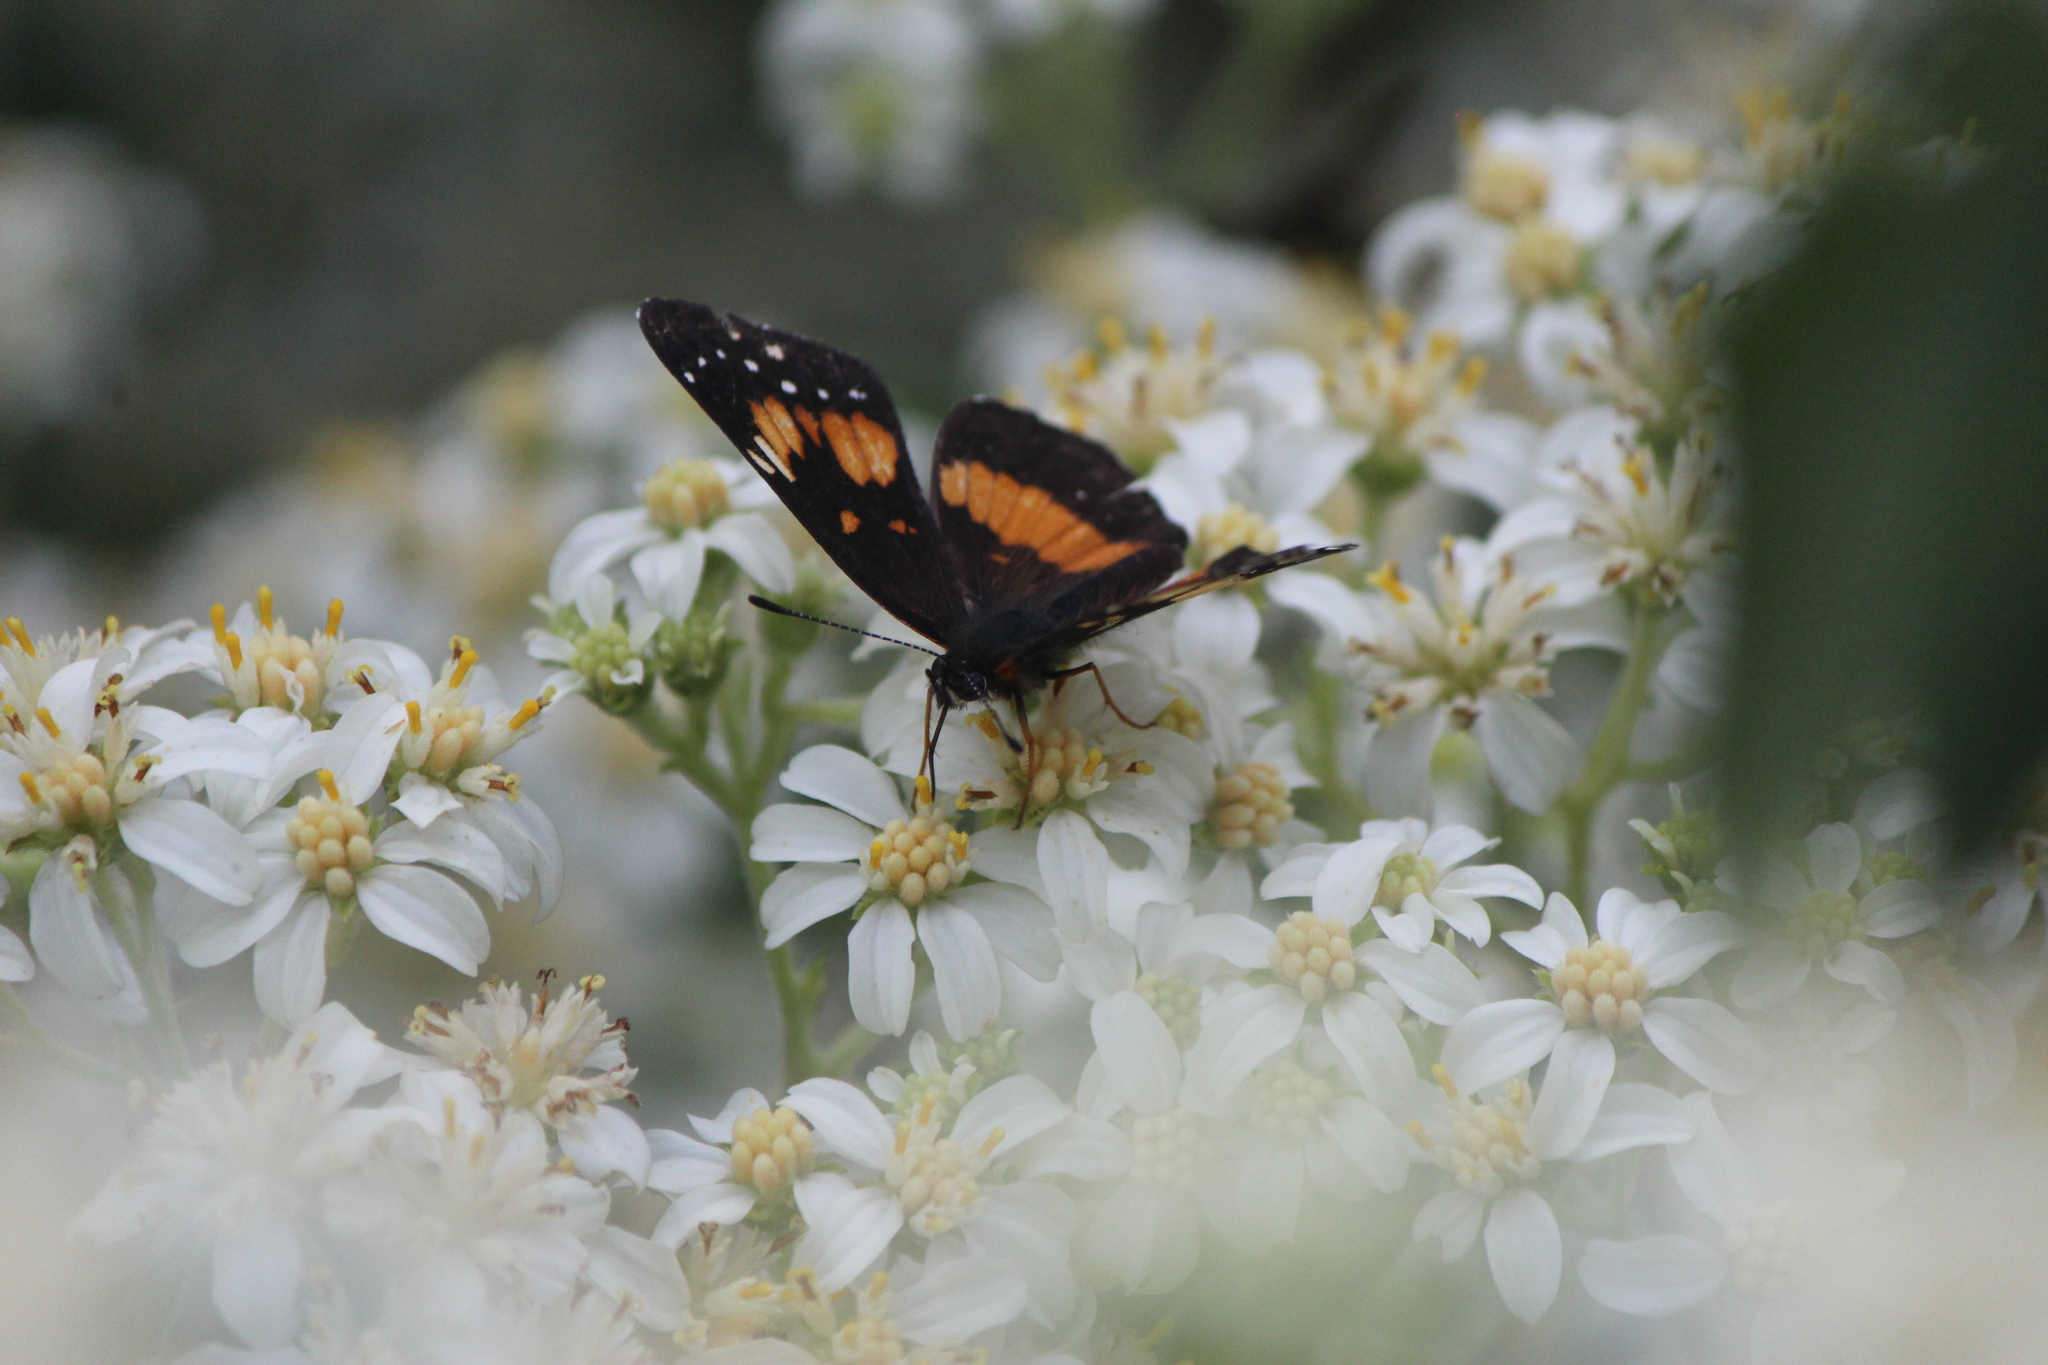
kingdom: Animalia
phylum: Arthropoda
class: Insecta
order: Lepidoptera
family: Nymphalidae
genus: Chlosyne
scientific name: Chlosyne lacinia
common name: Bordered patch
